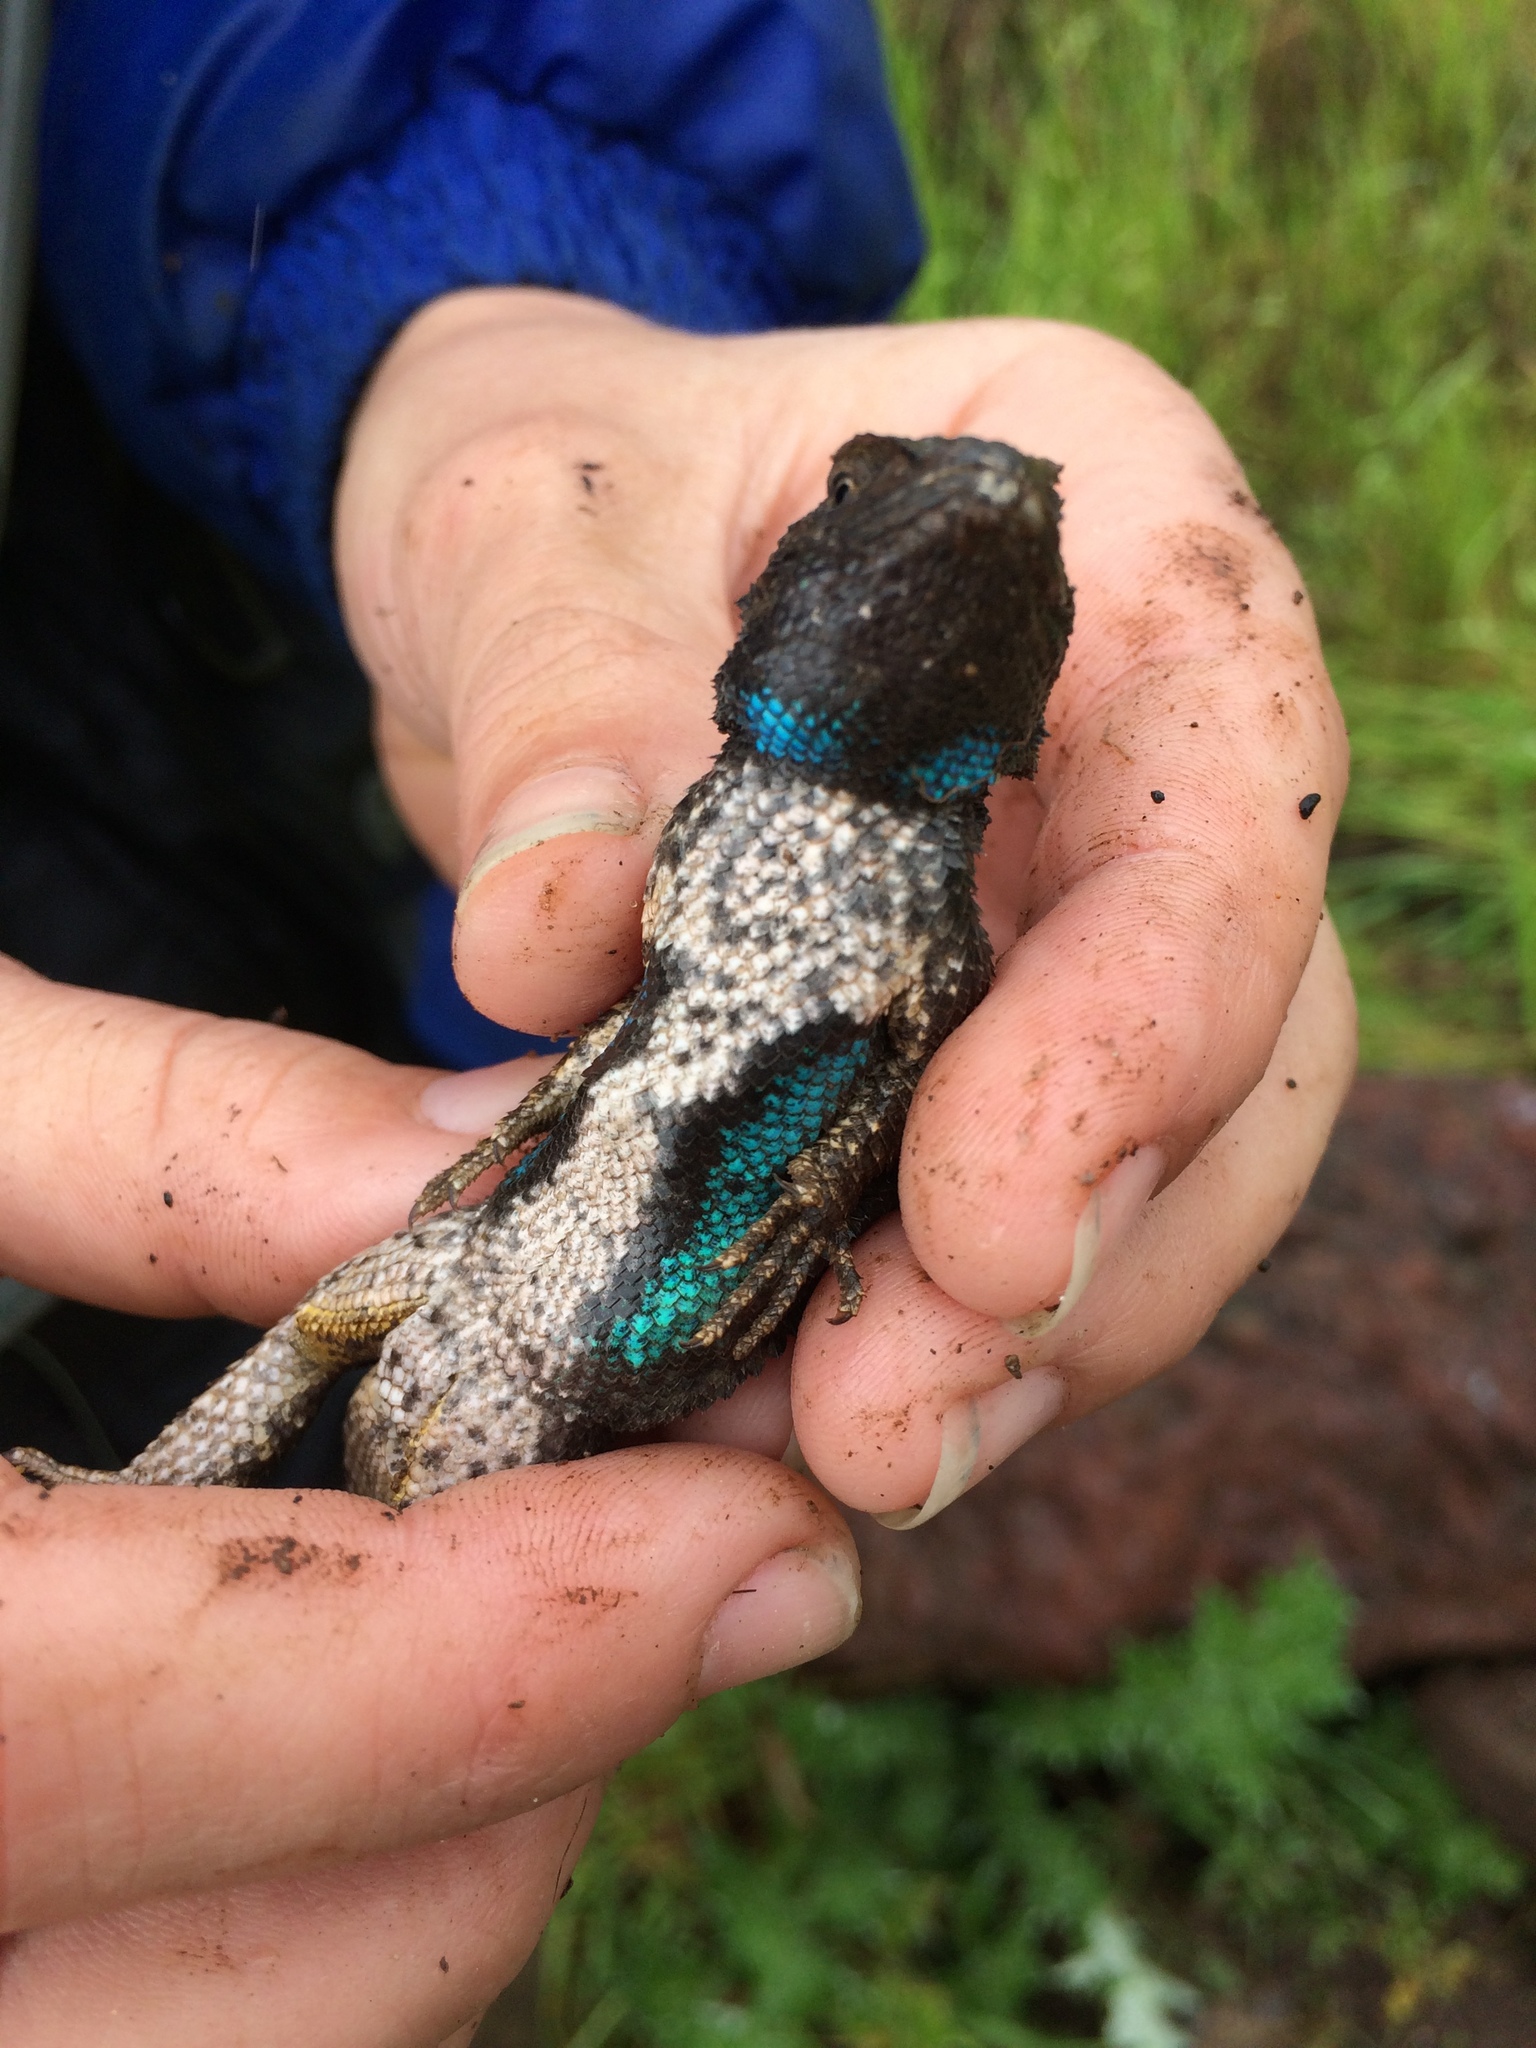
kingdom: Animalia
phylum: Chordata
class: Squamata
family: Phrynosomatidae
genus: Sceloporus
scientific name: Sceloporus occidentalis
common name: Western fence lizard
